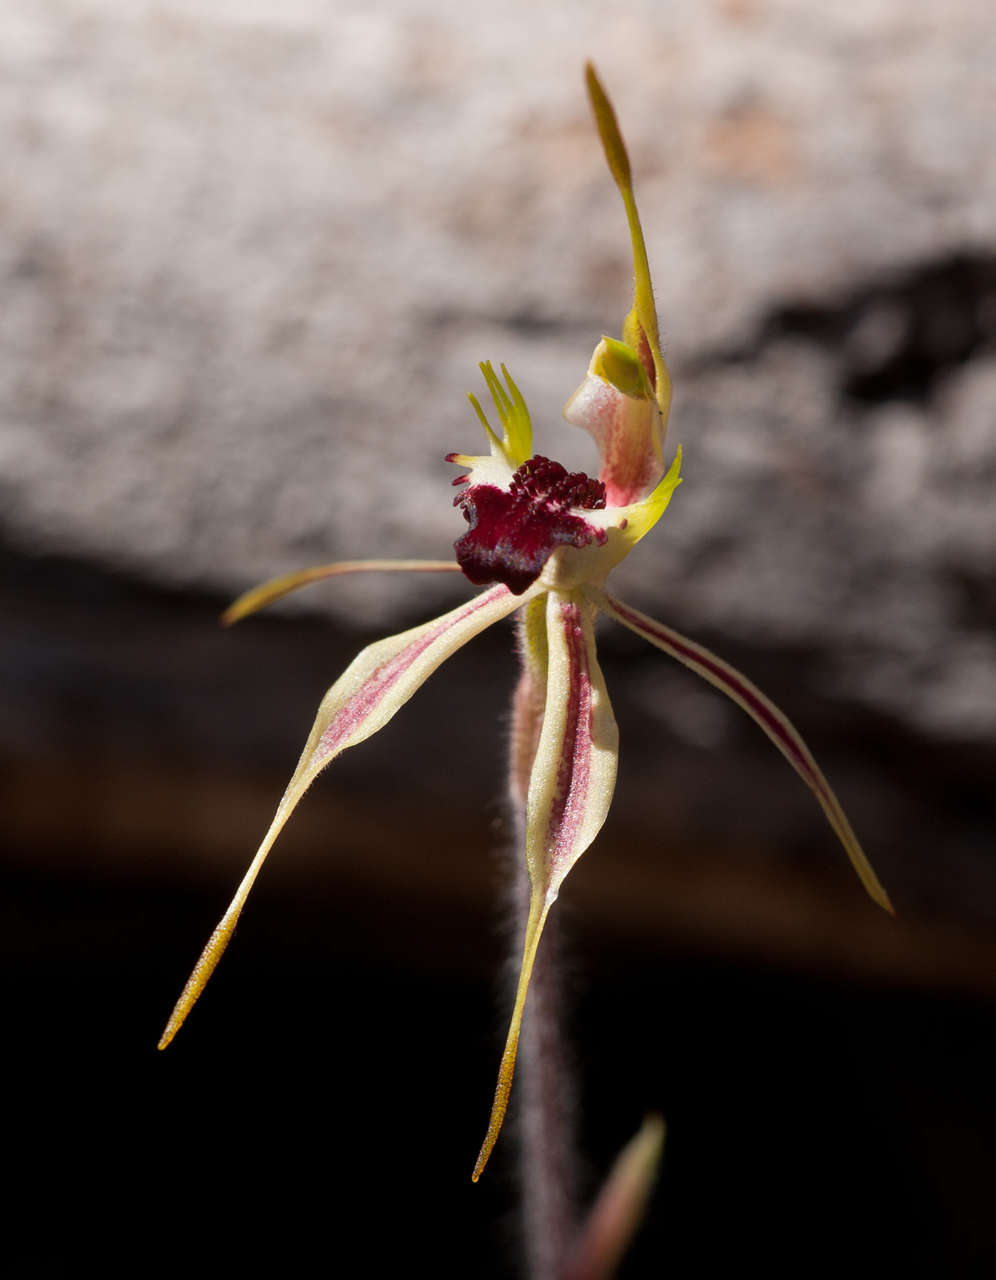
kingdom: Plantae
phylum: Tracheophyta
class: Liliopsida
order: Asparagales
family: Orchidaceae
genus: Caladenia
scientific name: Caladenia parva
